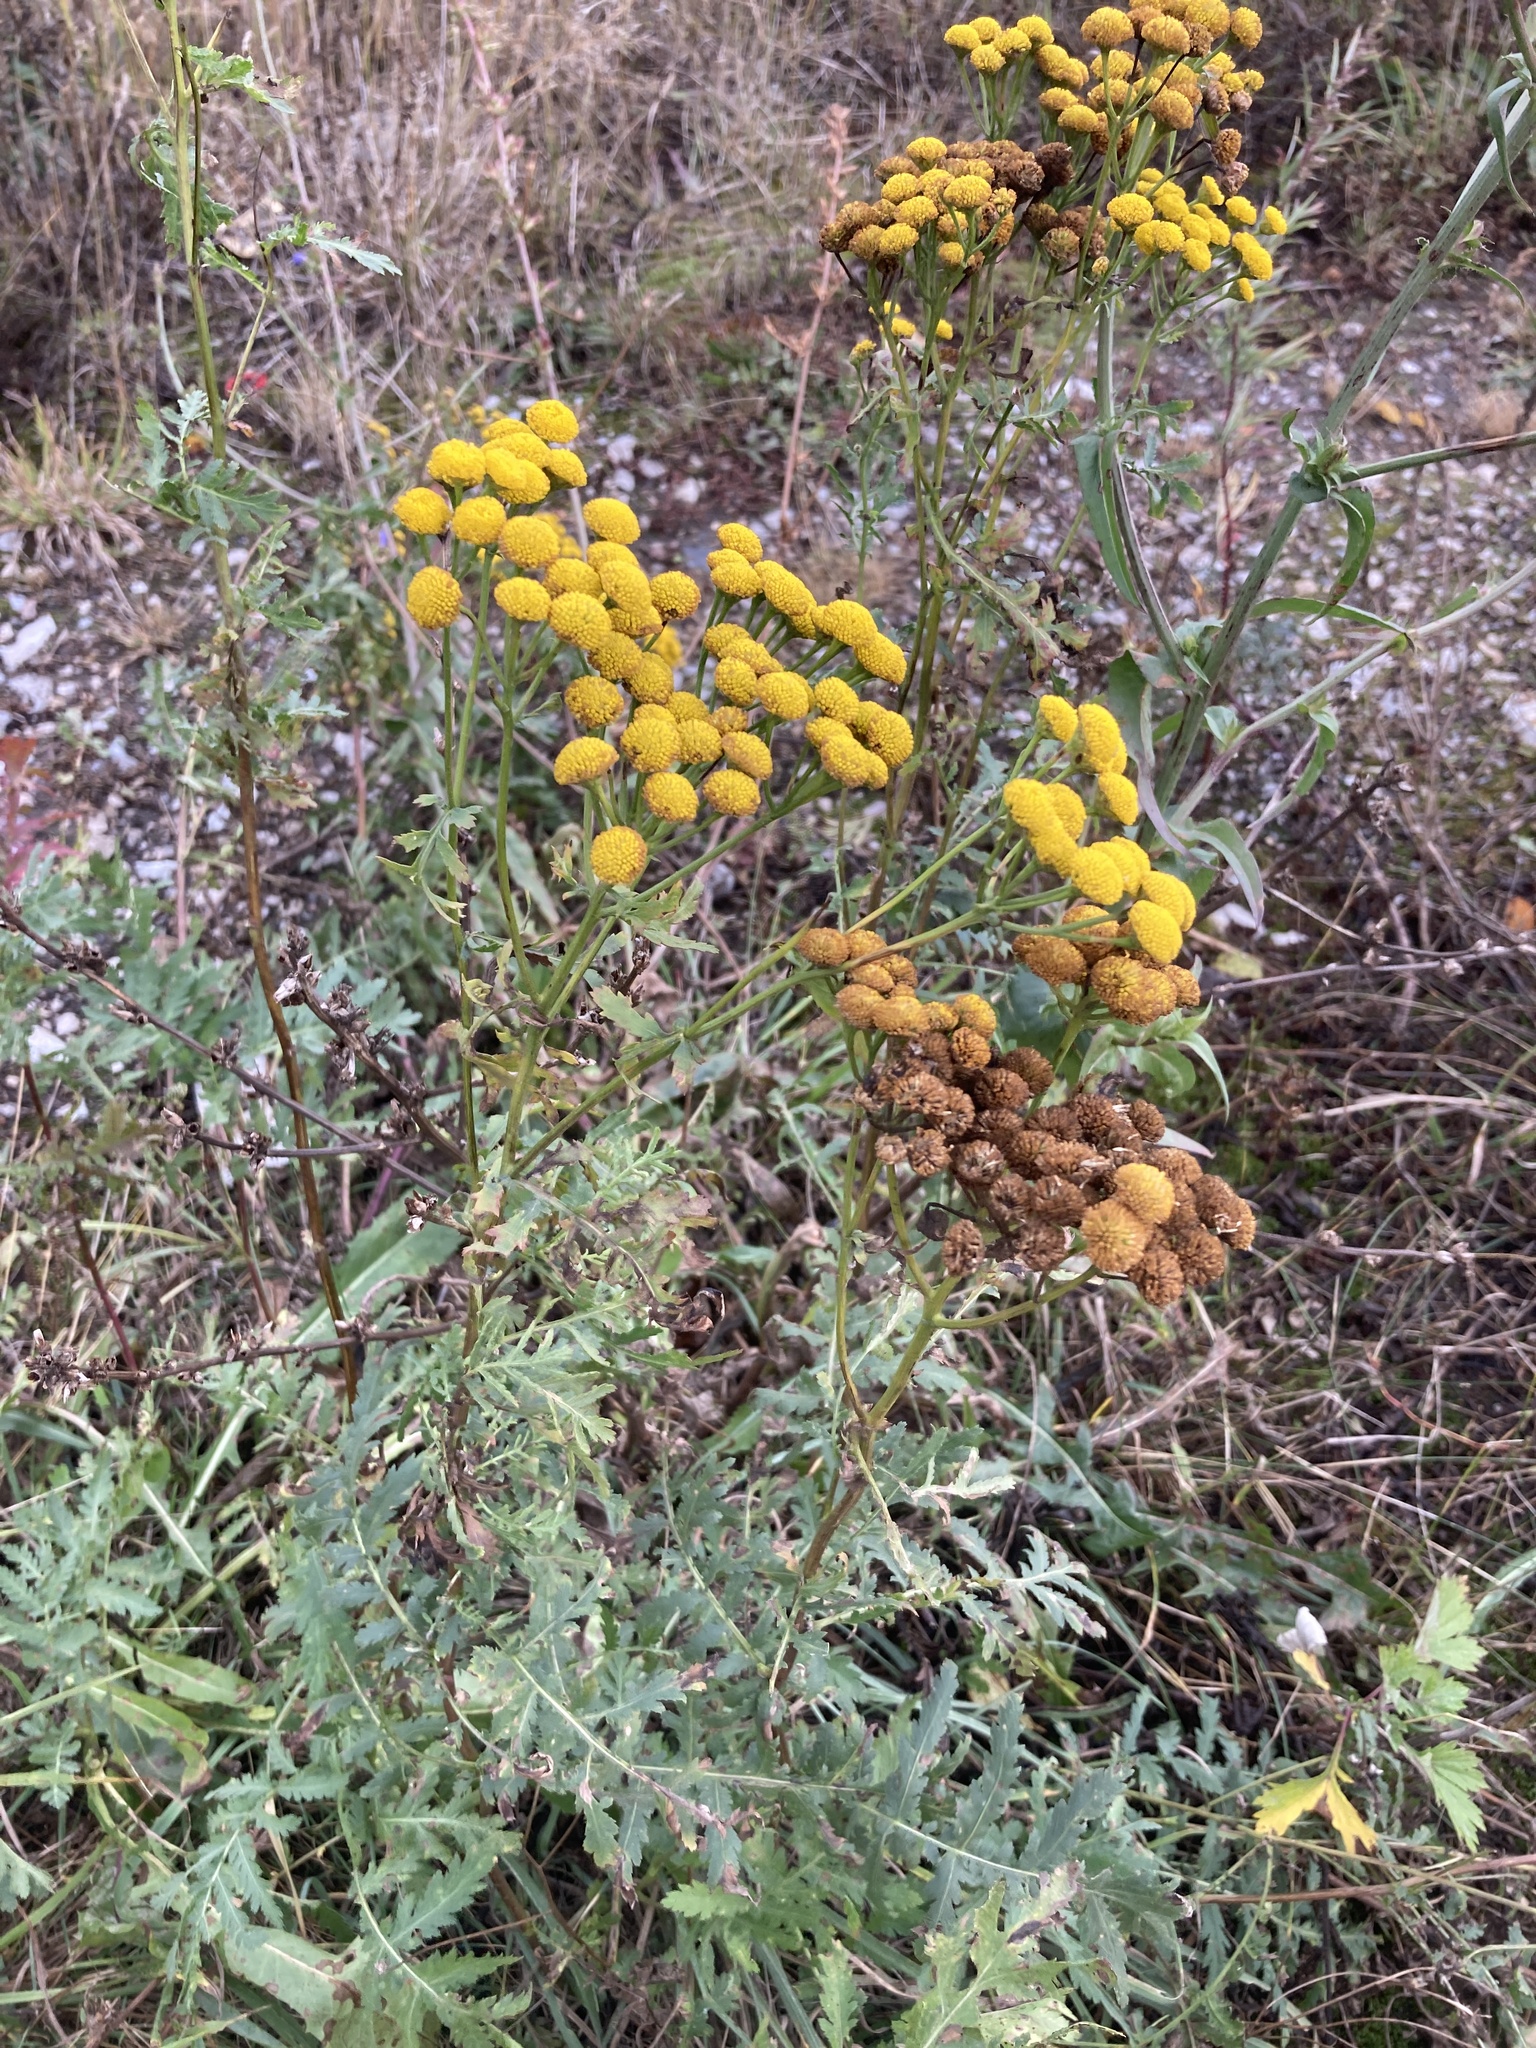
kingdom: Plantae
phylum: Tracheophyta
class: Magnoliopsida
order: Asterales
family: Asteraceae
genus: Tanacetum
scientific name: Tanacetum vulgare
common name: Common tansy
